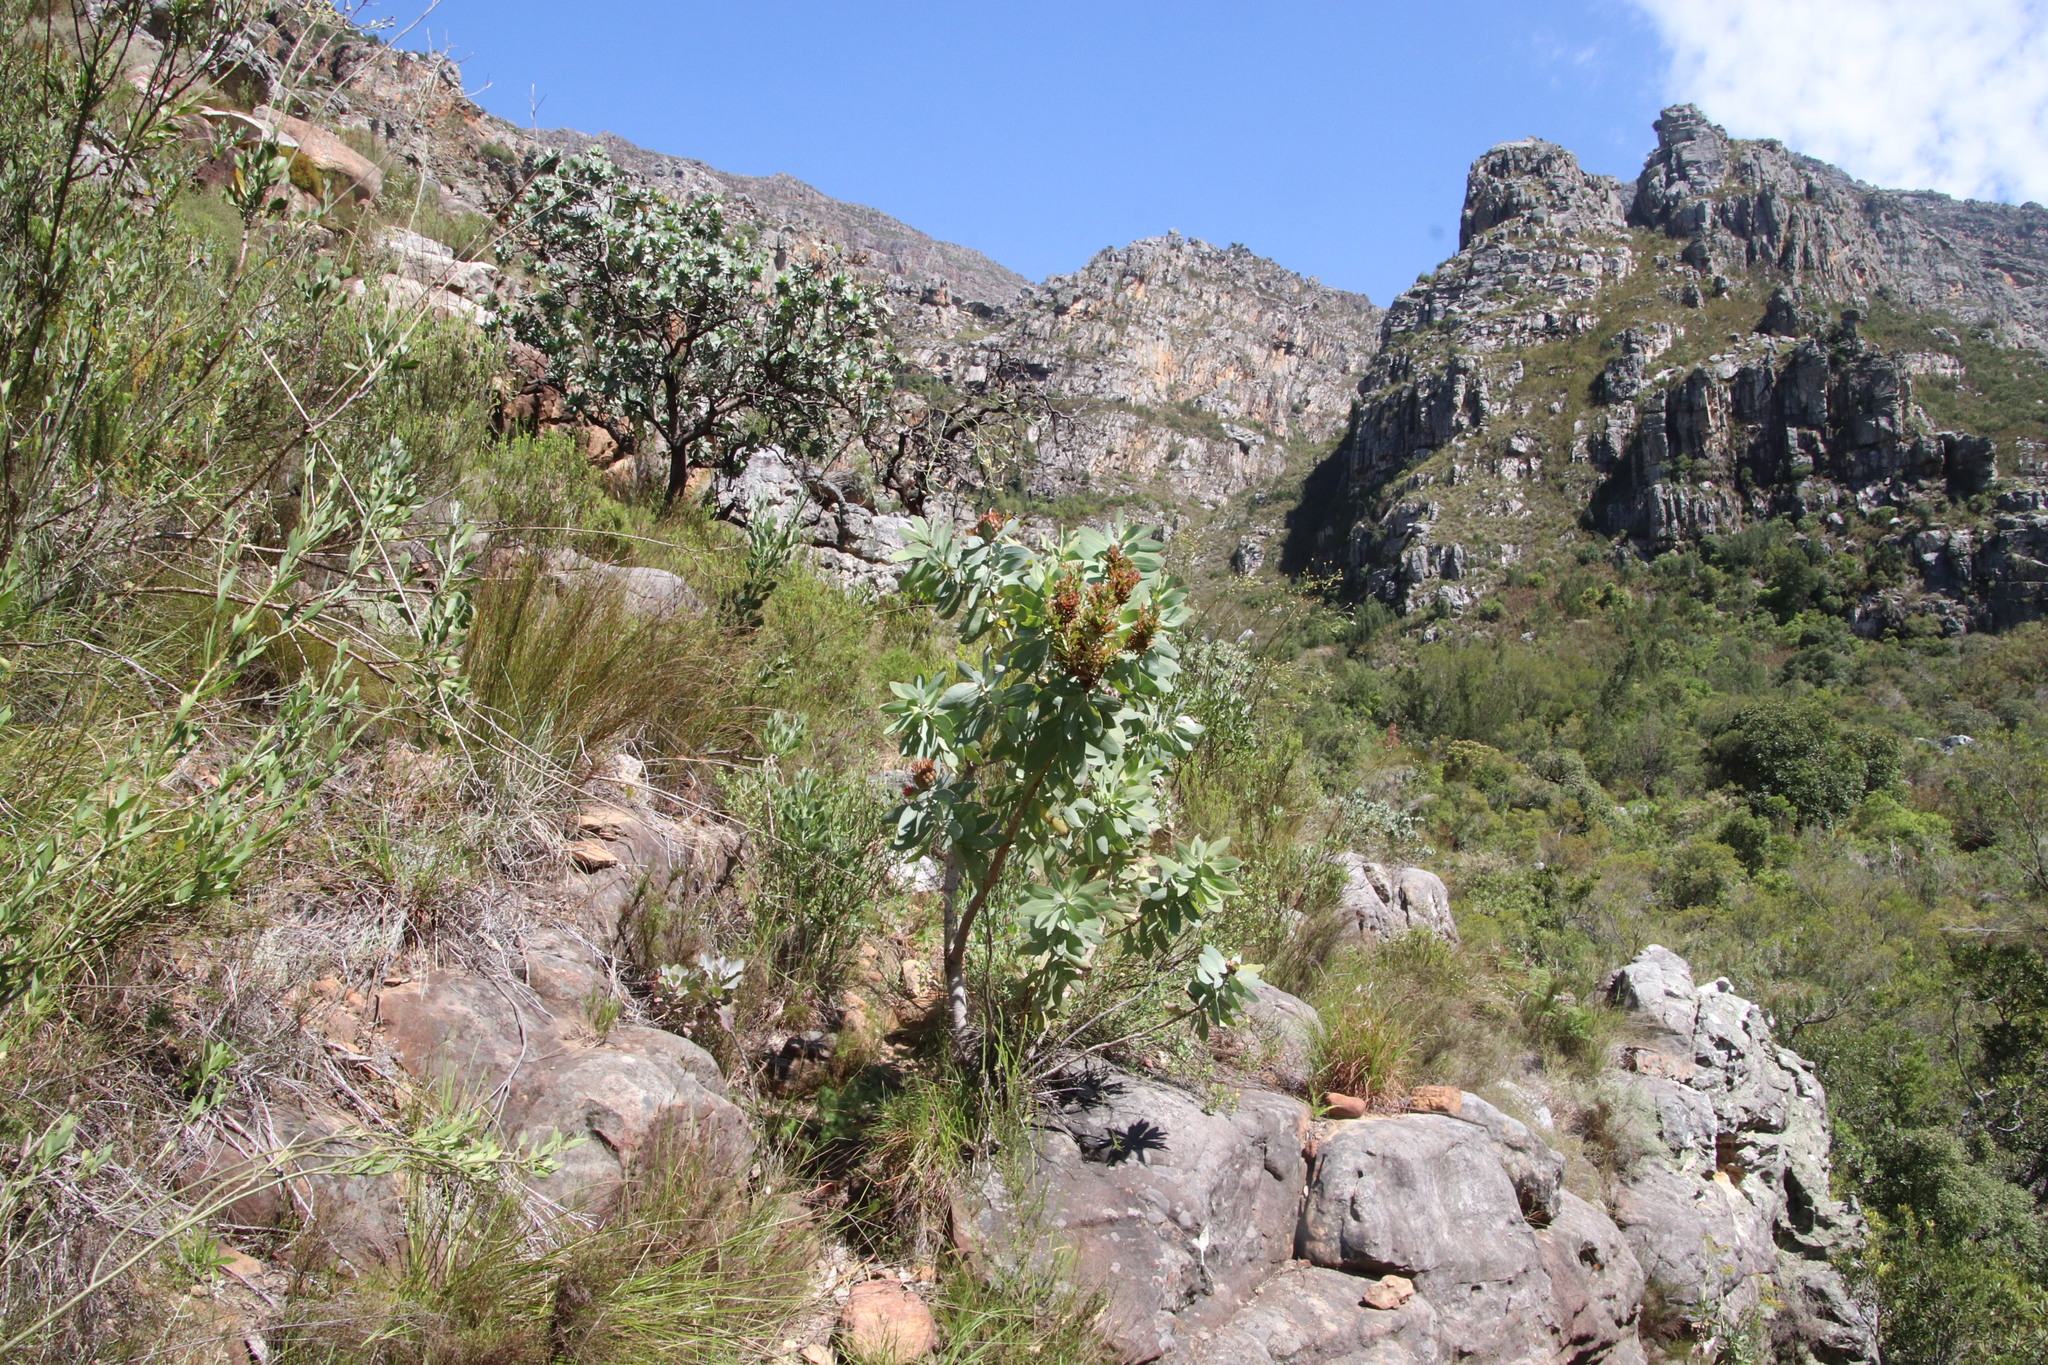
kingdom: Plantae
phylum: Tracheophyta
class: Magnoliopsida
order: Proteales
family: Proteaceae
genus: Protea
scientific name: Protea nitida
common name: Tree protea
